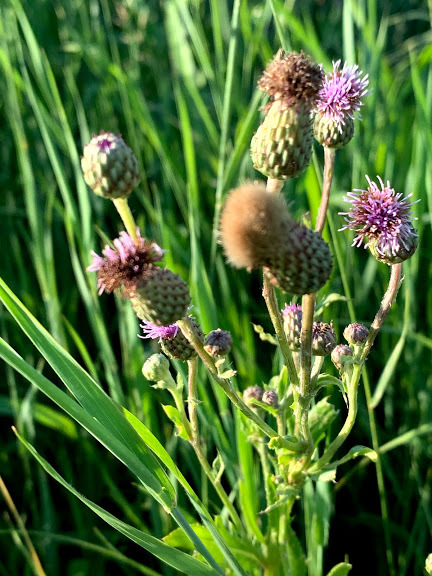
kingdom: Plantae
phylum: Tracheophyta
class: Magnoliopsida
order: Asterales
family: Asteraceae
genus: Cirsium
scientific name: Cirsium arvense
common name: Creeping thistle
